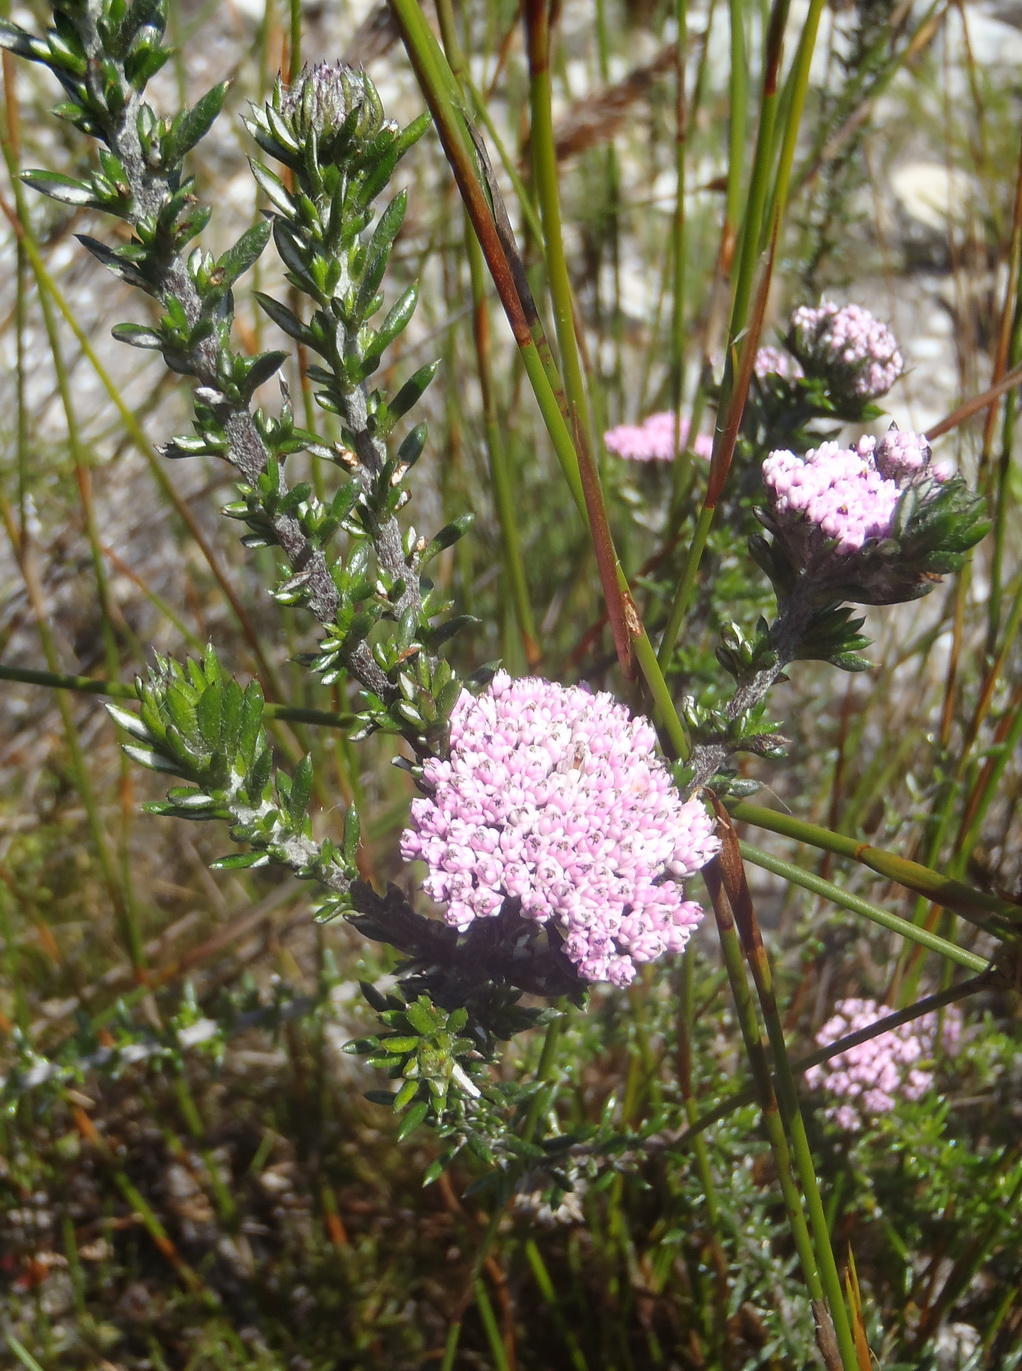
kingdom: Plantae
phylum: Tracheophyta
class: Magnoliopsida
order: Asterales
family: Asteraceae
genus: Metalasia
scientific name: Metalasia erubescens
